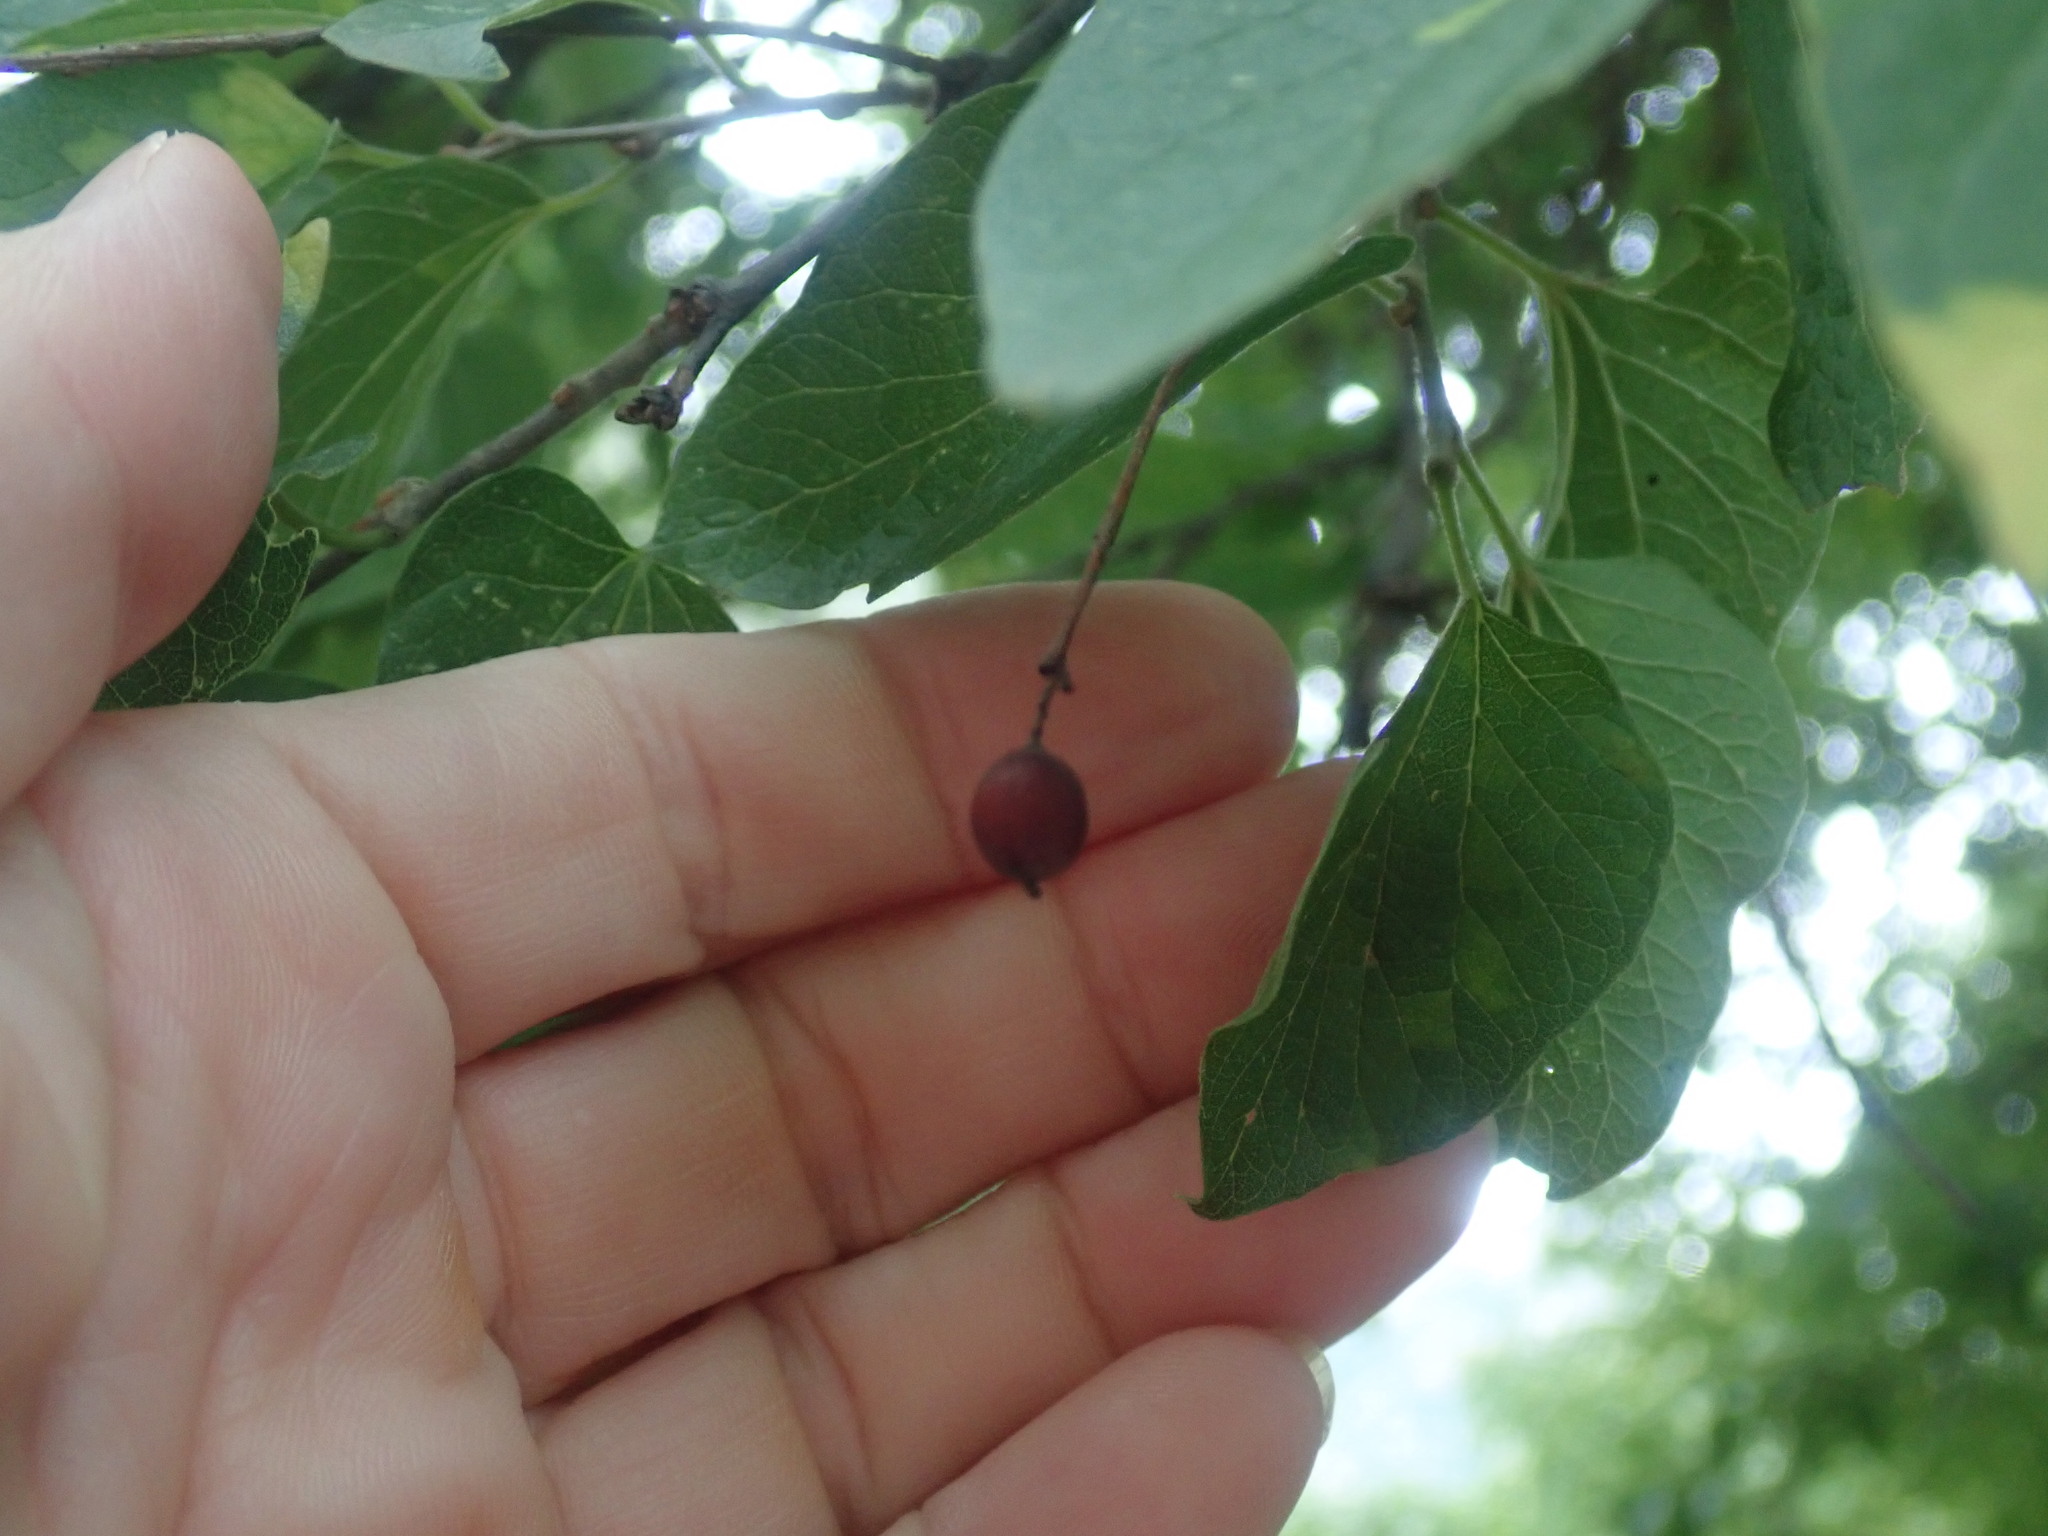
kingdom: Plantae
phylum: Tracheophyta
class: Magnoliopsida
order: Rosales
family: Cannabaceae
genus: Celtis
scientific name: Celtis reticulata
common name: Netleaf hackberry
